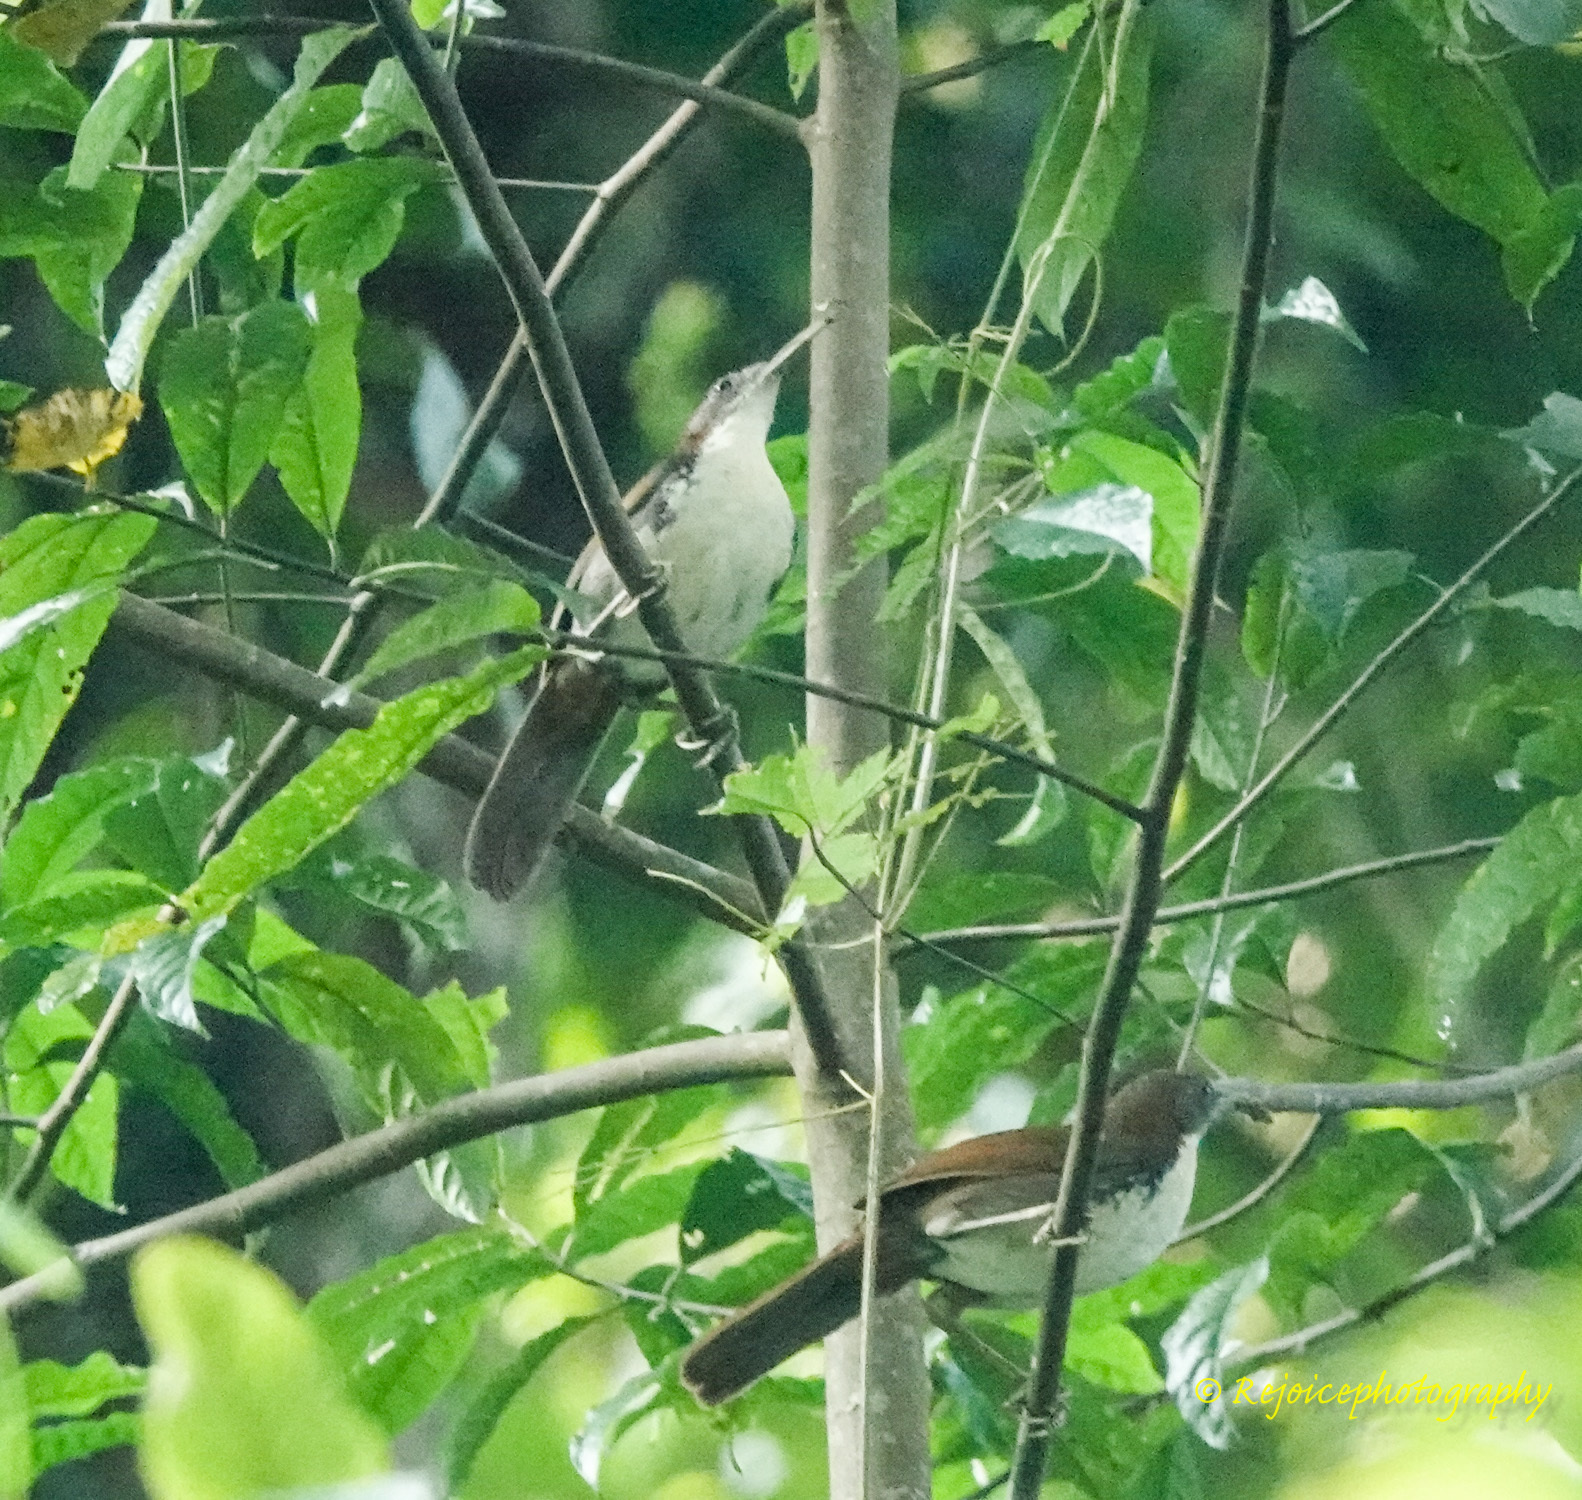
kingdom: Animalia
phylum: Chordata
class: Aves
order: Passeriformes
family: Timaliidae
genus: Pomatorhinus
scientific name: Pomatorhinus hypoleucos
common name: Large scimitar babbler
